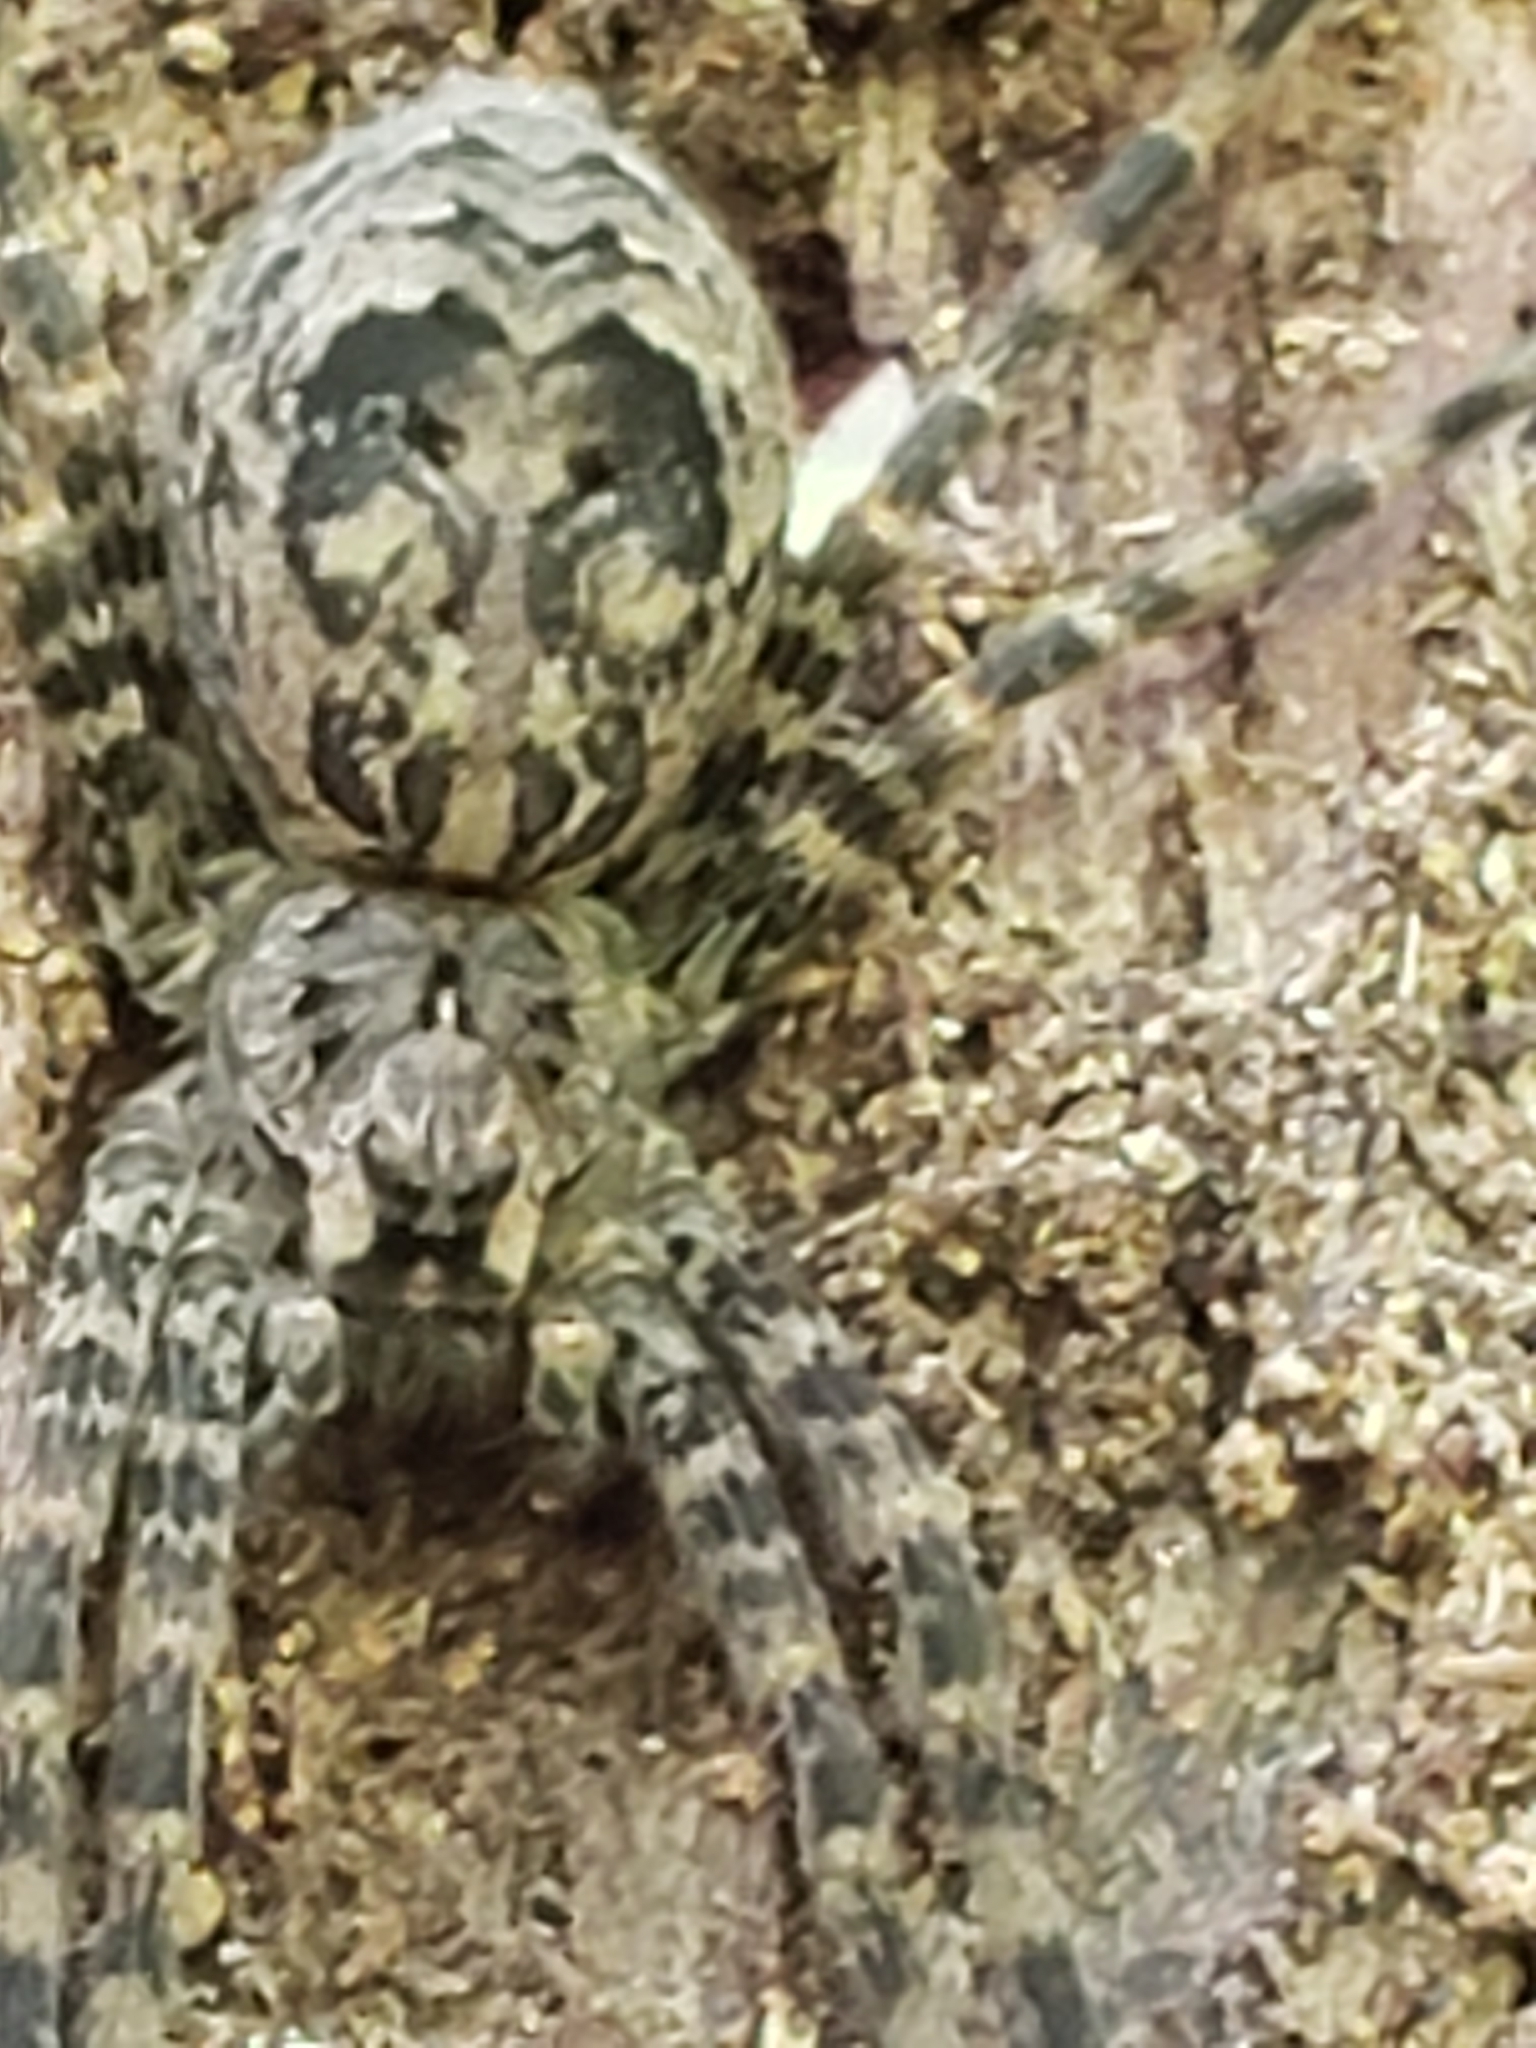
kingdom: Animalia
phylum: Arthropoda
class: Arachnida
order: Araneae
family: Pisauridae
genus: Dolomedes
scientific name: Dolomedes tenebrosus
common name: Dark fishing spider
